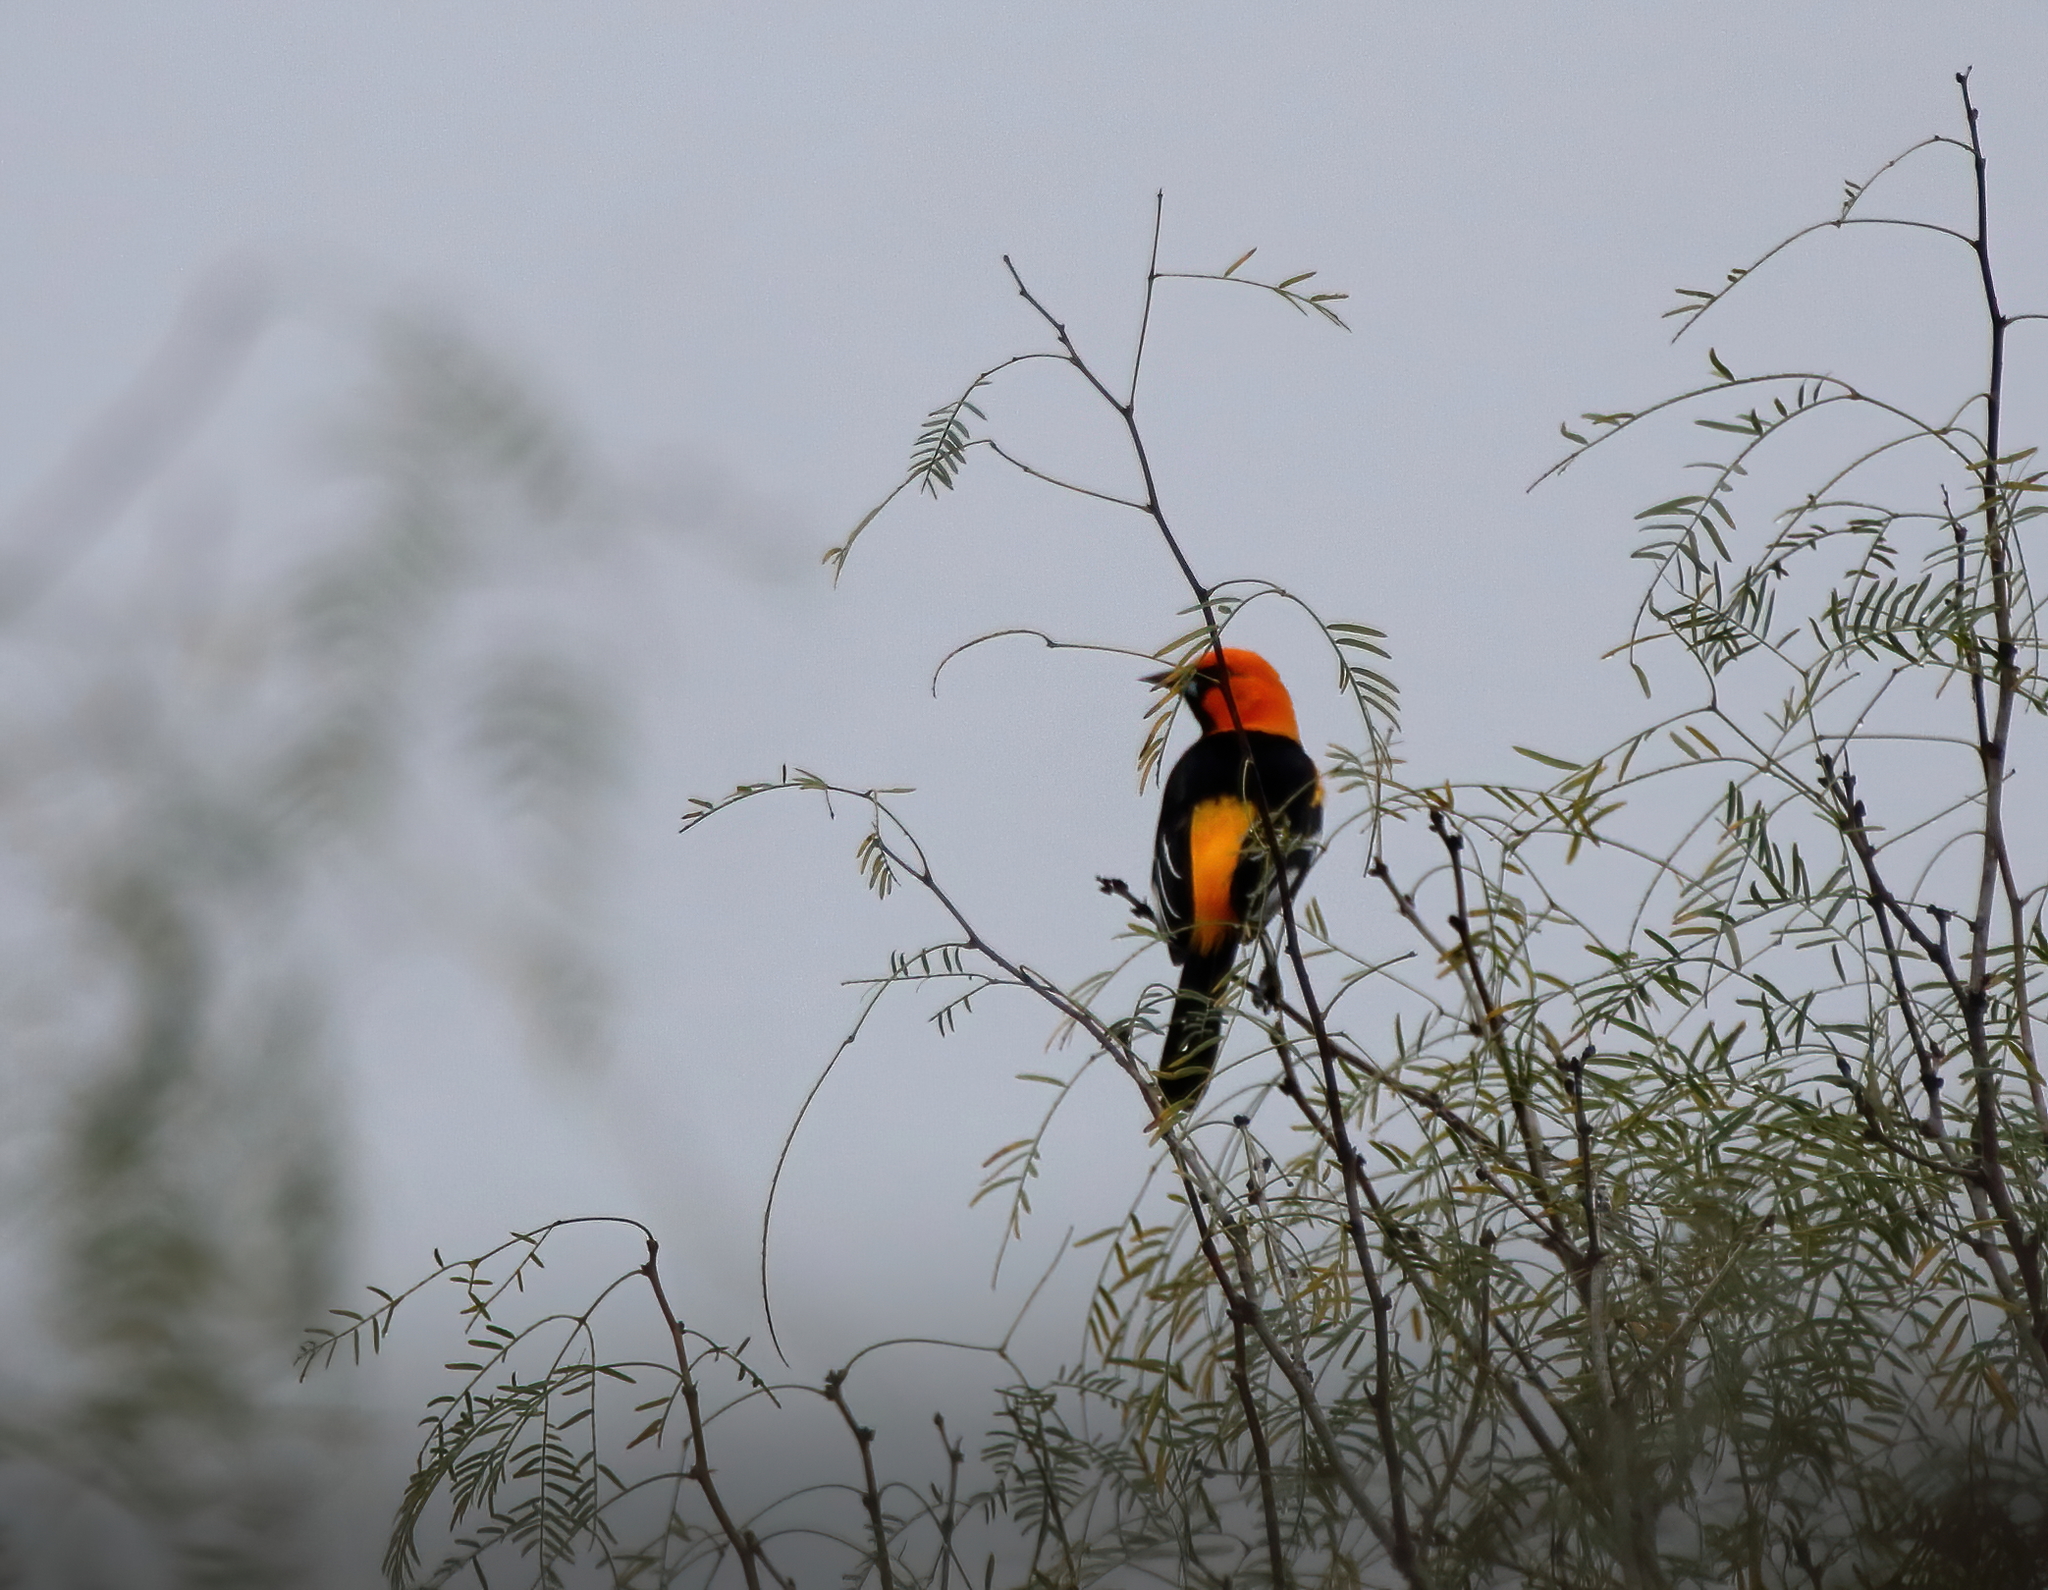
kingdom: Animalia
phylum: Chordata
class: Aves
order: Passeriformes
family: Icteridae
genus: Icterus
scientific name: Icterus gularis
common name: Altamira oriole
